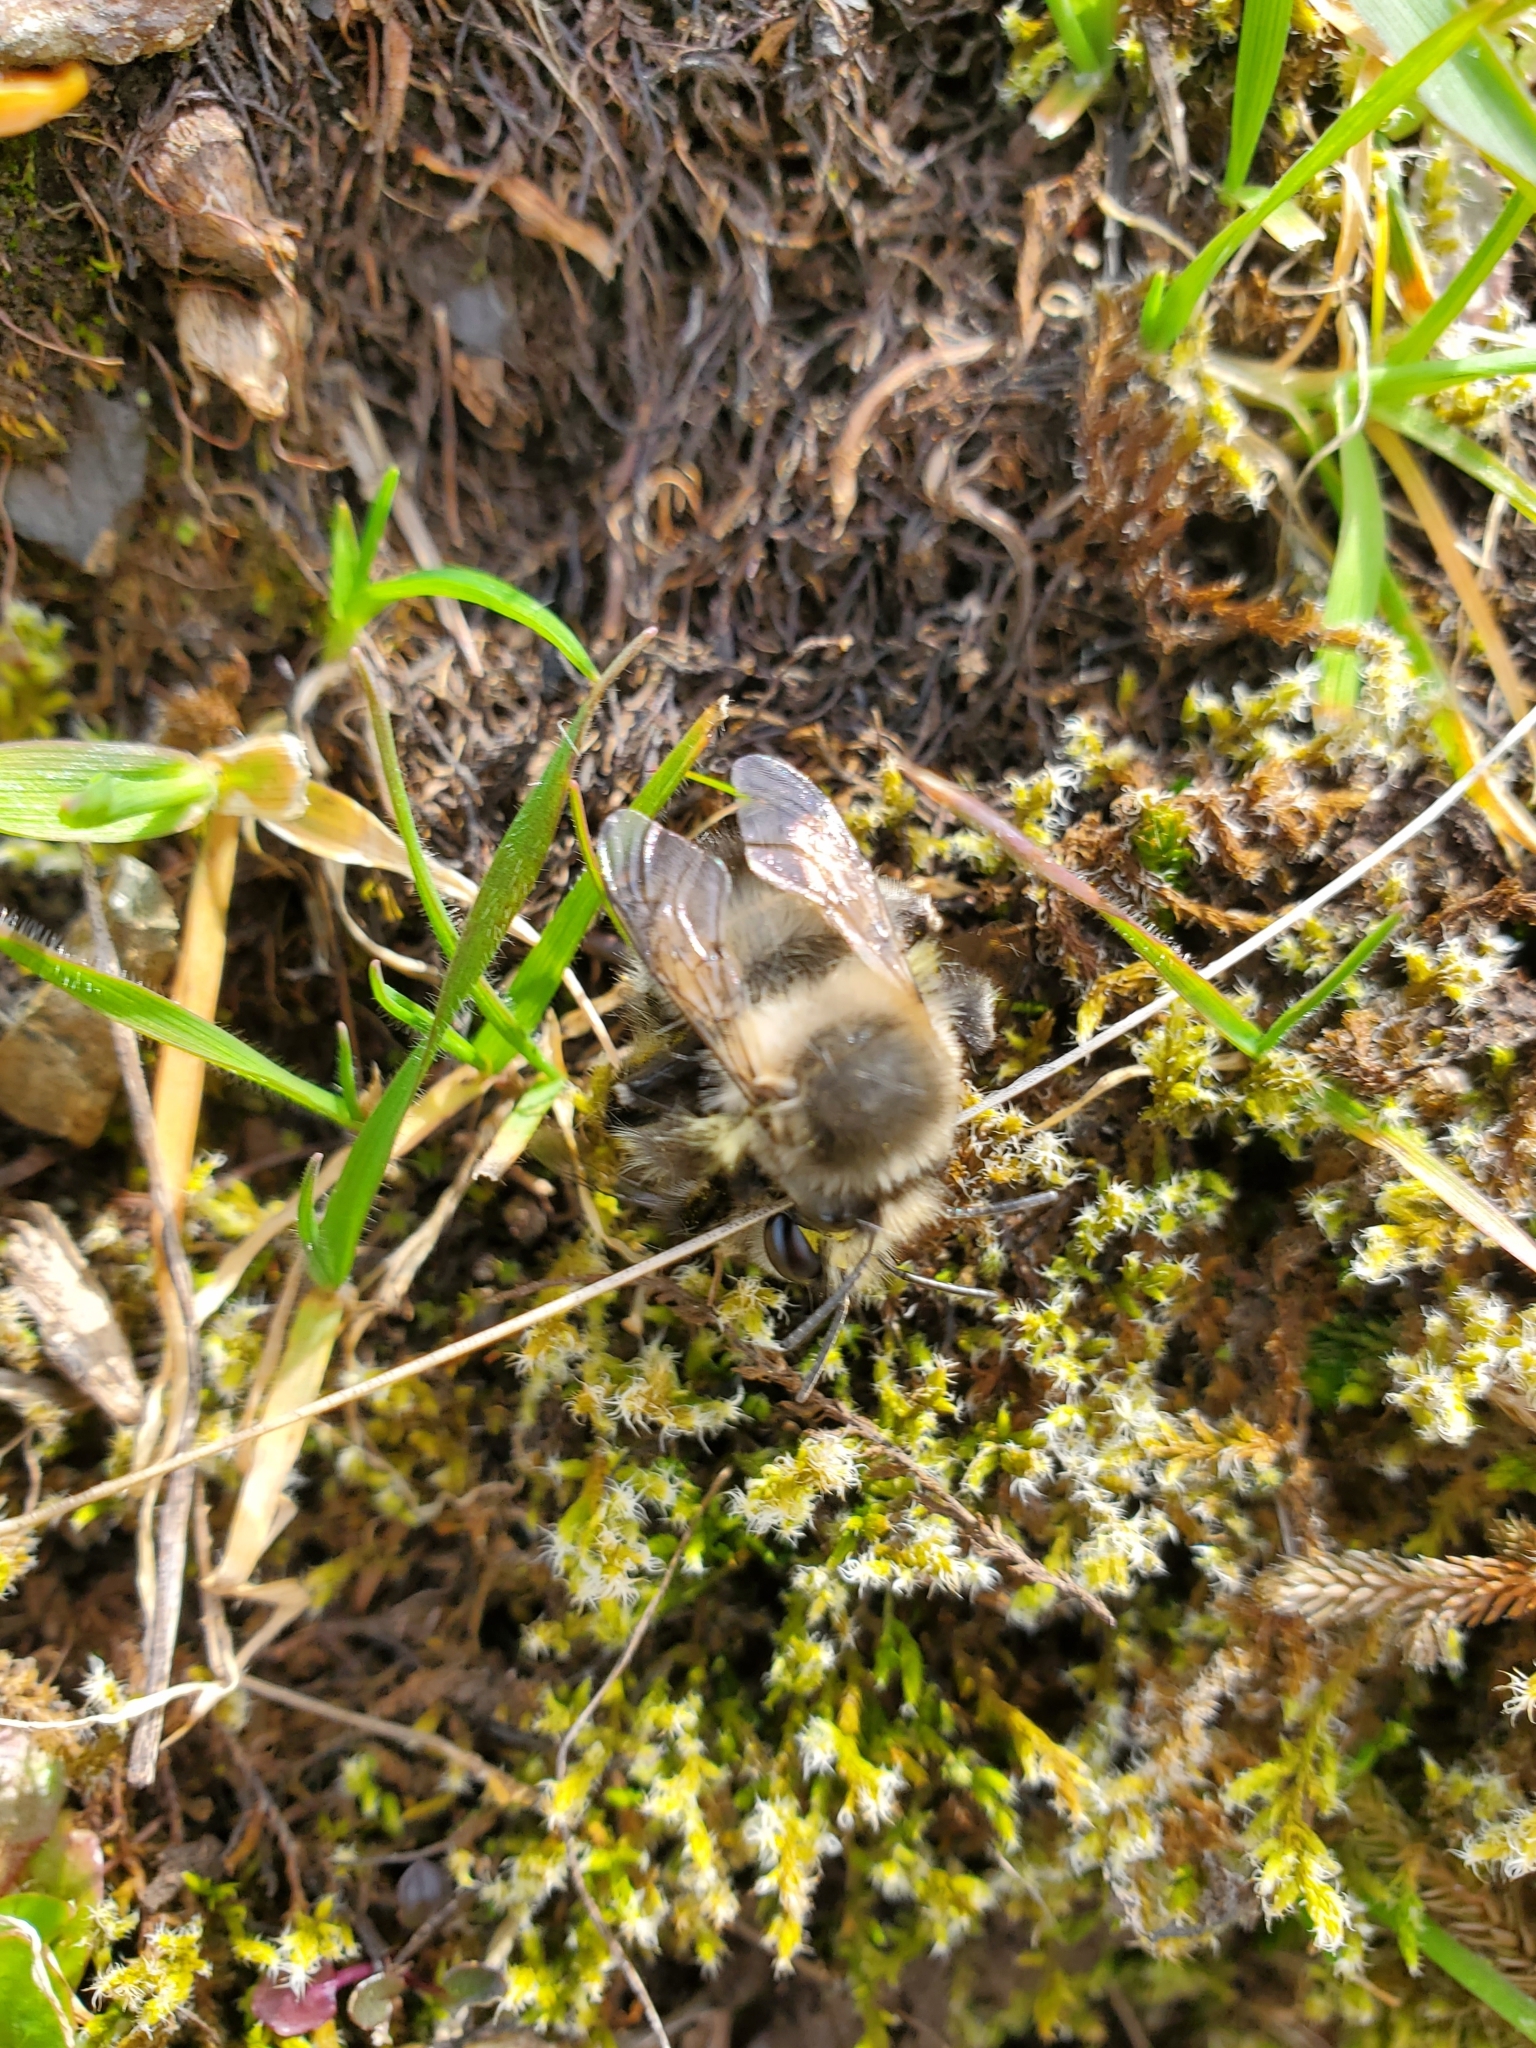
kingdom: Animalia
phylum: Arthropoda
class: Insecta
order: Hymenoptera
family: Apidae
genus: Anthophora
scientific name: Anthophora pacifica
